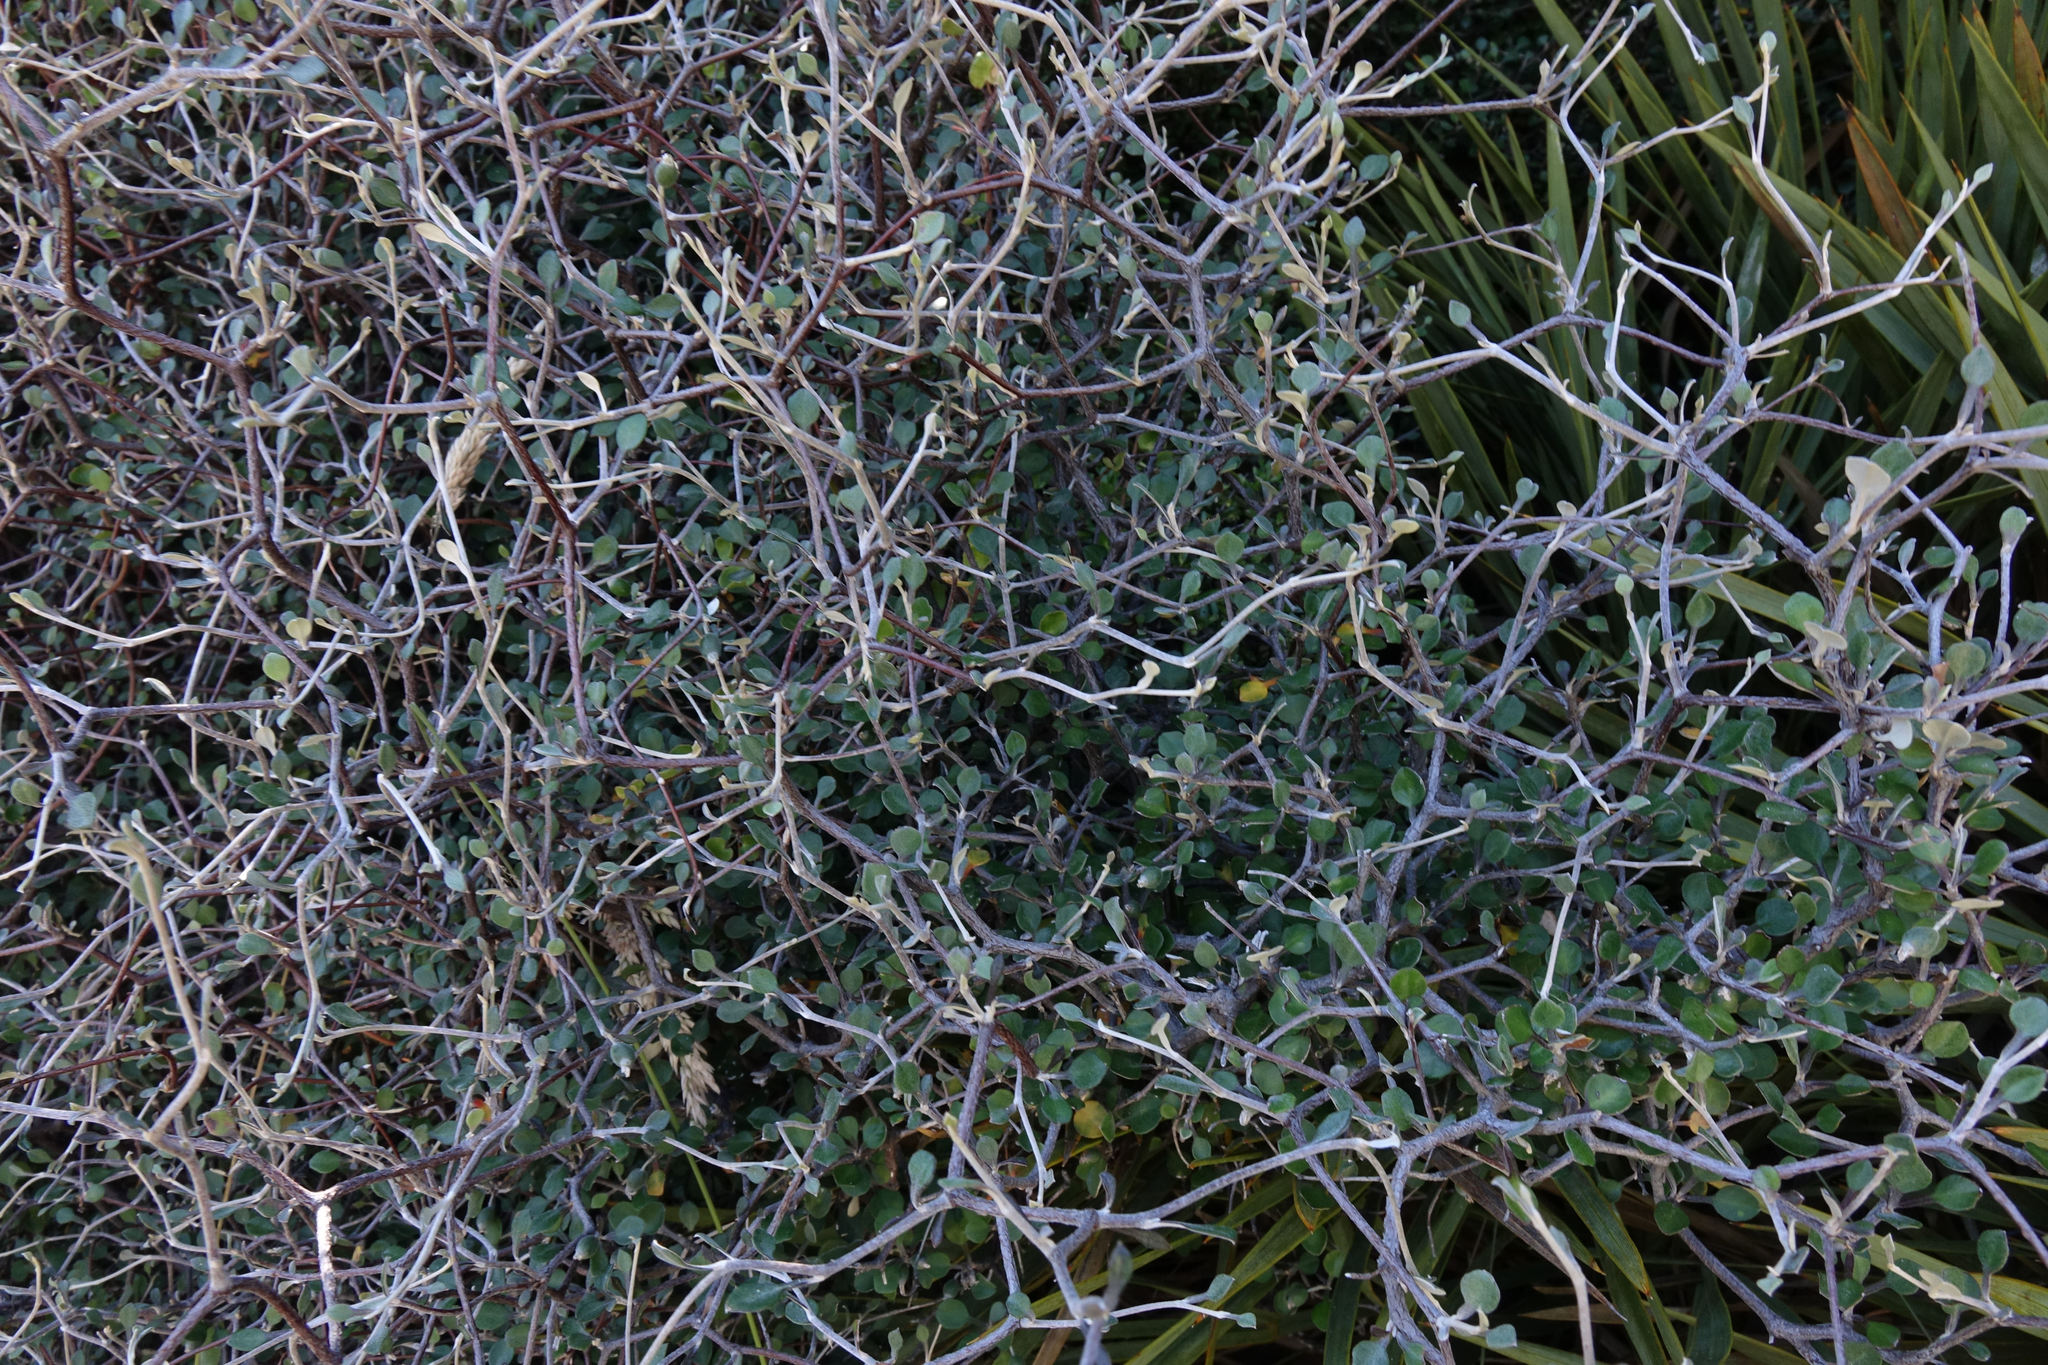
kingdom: Plantae
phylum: Tracheophyta
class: Magnoliopsida
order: Asterales
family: Argophyllaceae
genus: Corokia
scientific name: Corokia cotoneaster
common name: Wire nettingbush
